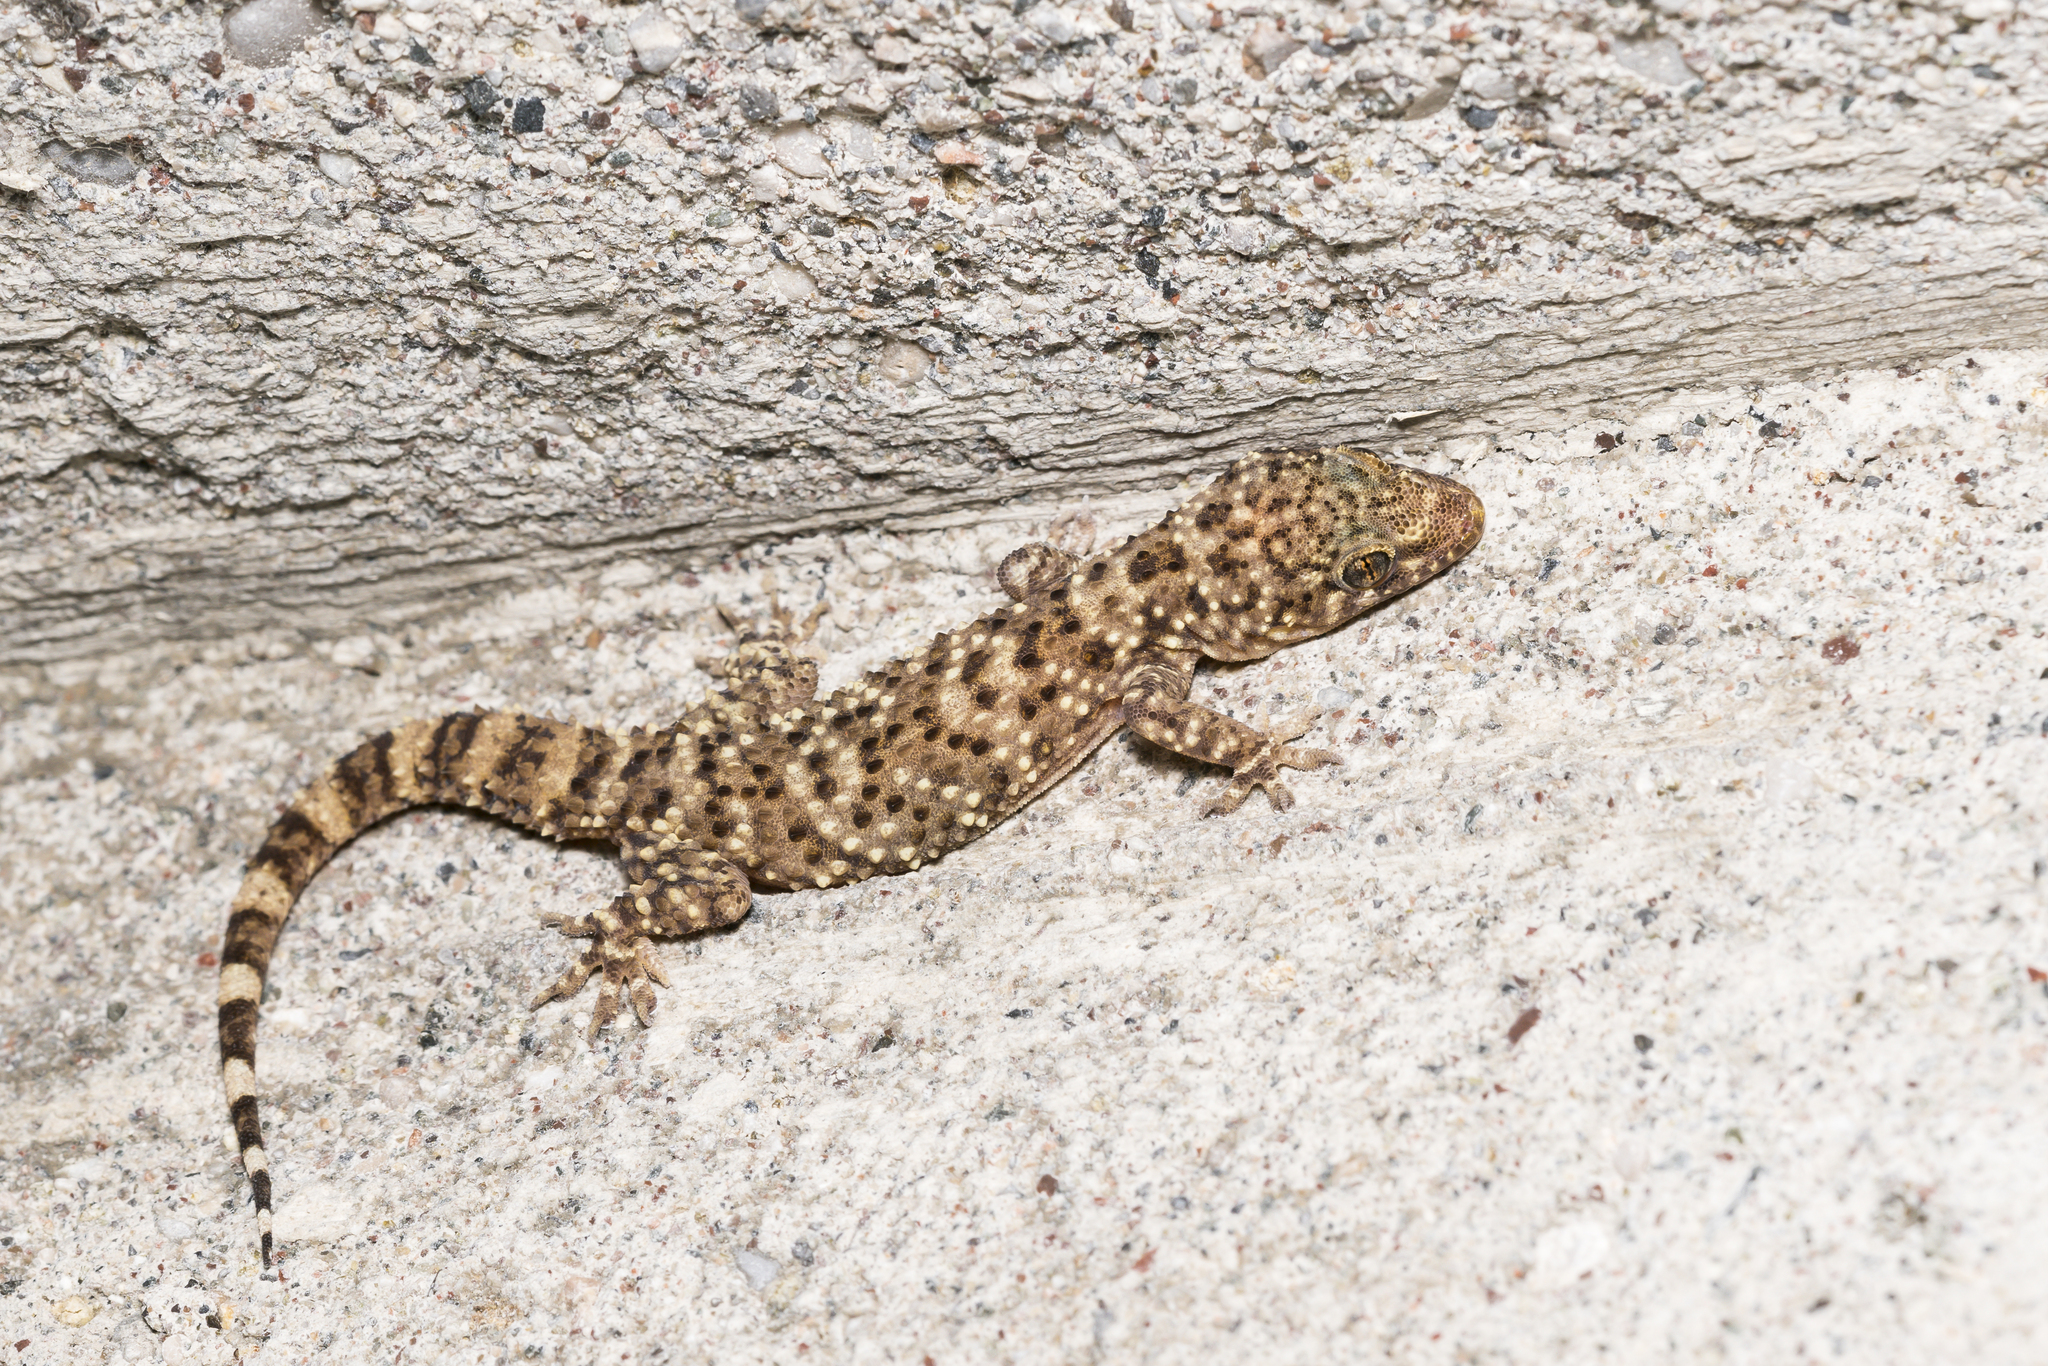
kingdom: Animalia
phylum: Chordata
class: Squamata
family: Gekkonidae
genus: Hemidactylus
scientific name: Hemidactylus turcicus
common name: Turkish gecko
